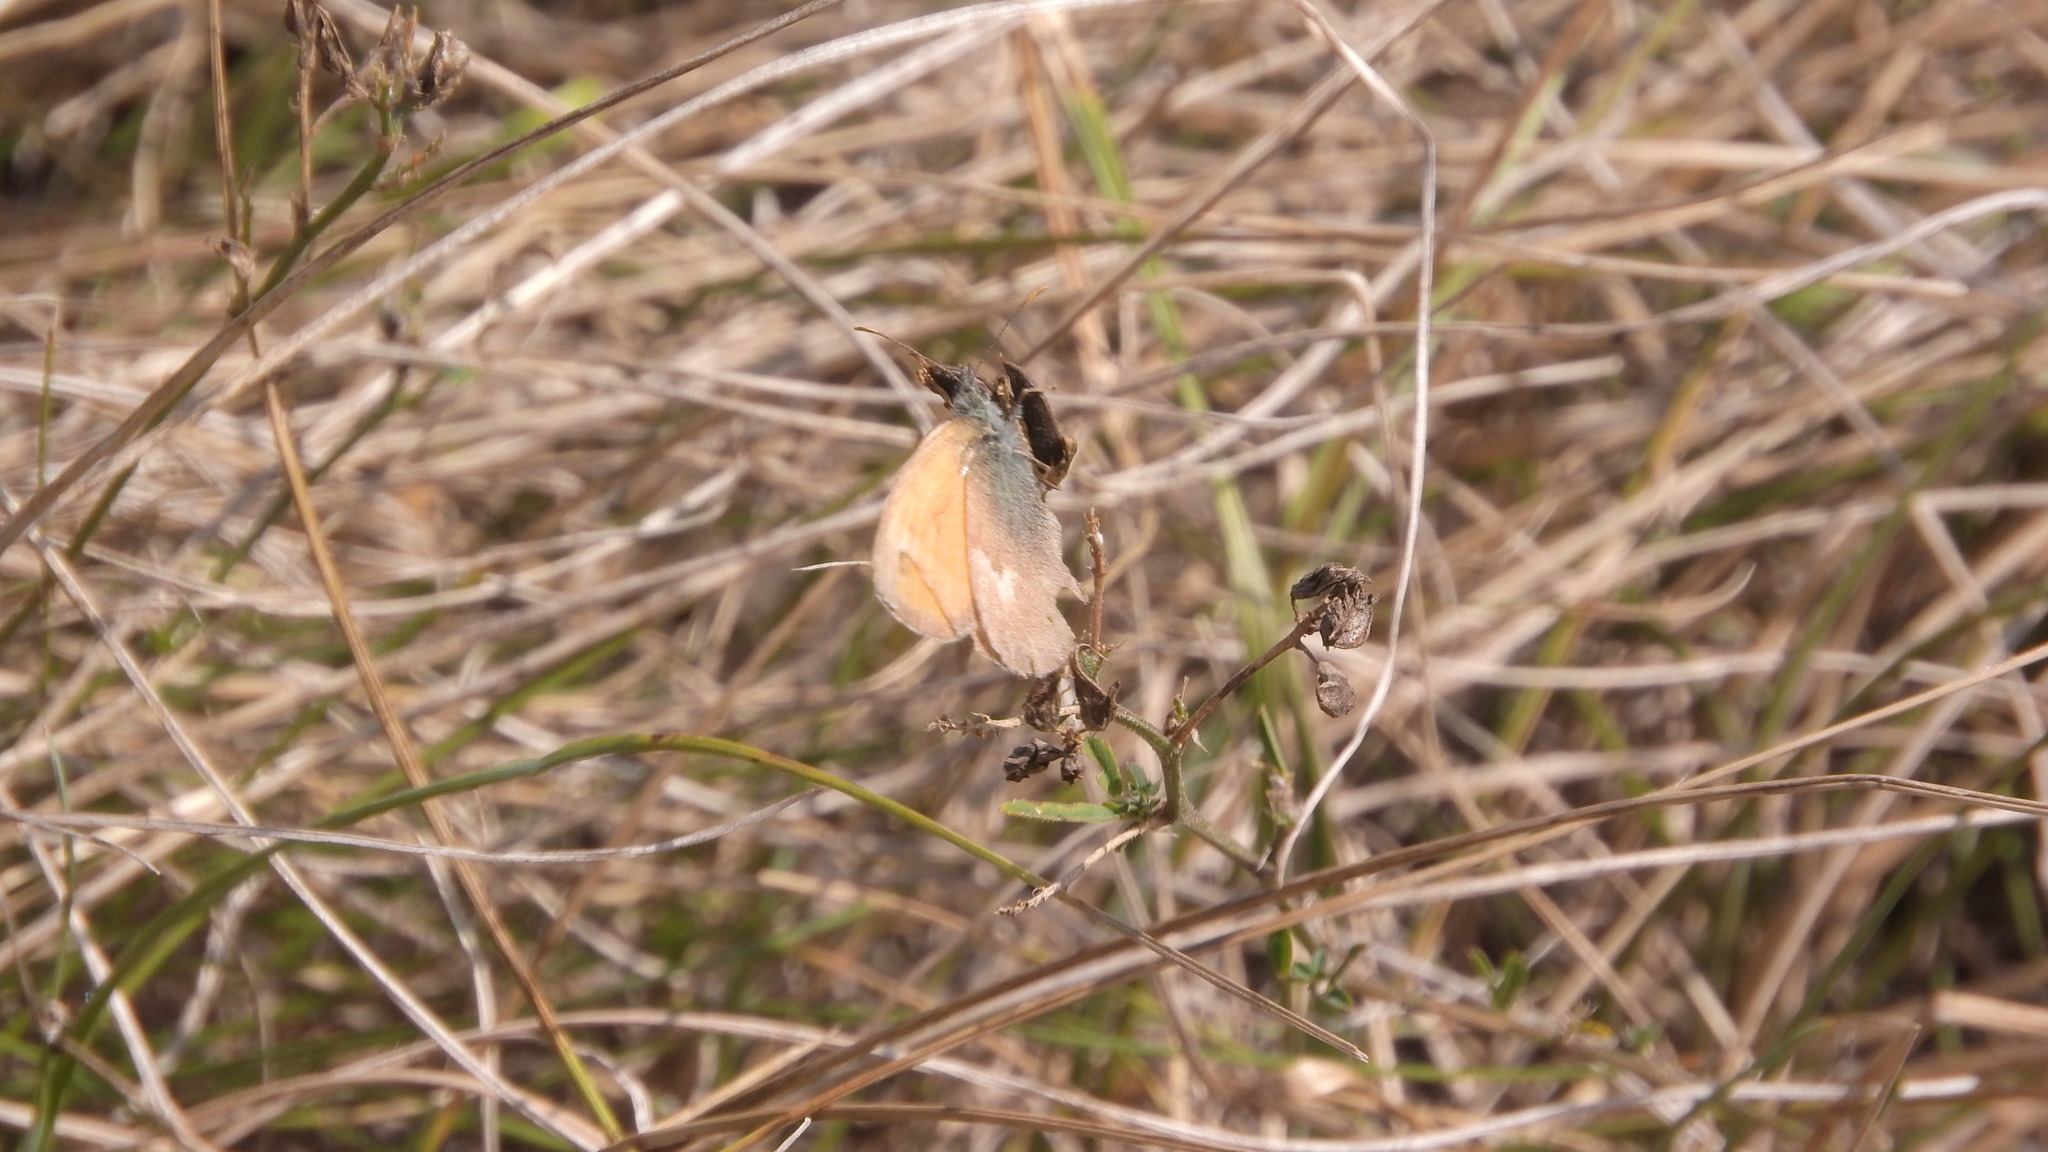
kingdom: Animalia
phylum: Arthropoda
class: Insecta
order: Lepidoptera
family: Nymphalidae
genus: Coenonympha
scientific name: Coenonympha pamphilus
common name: Small heath
